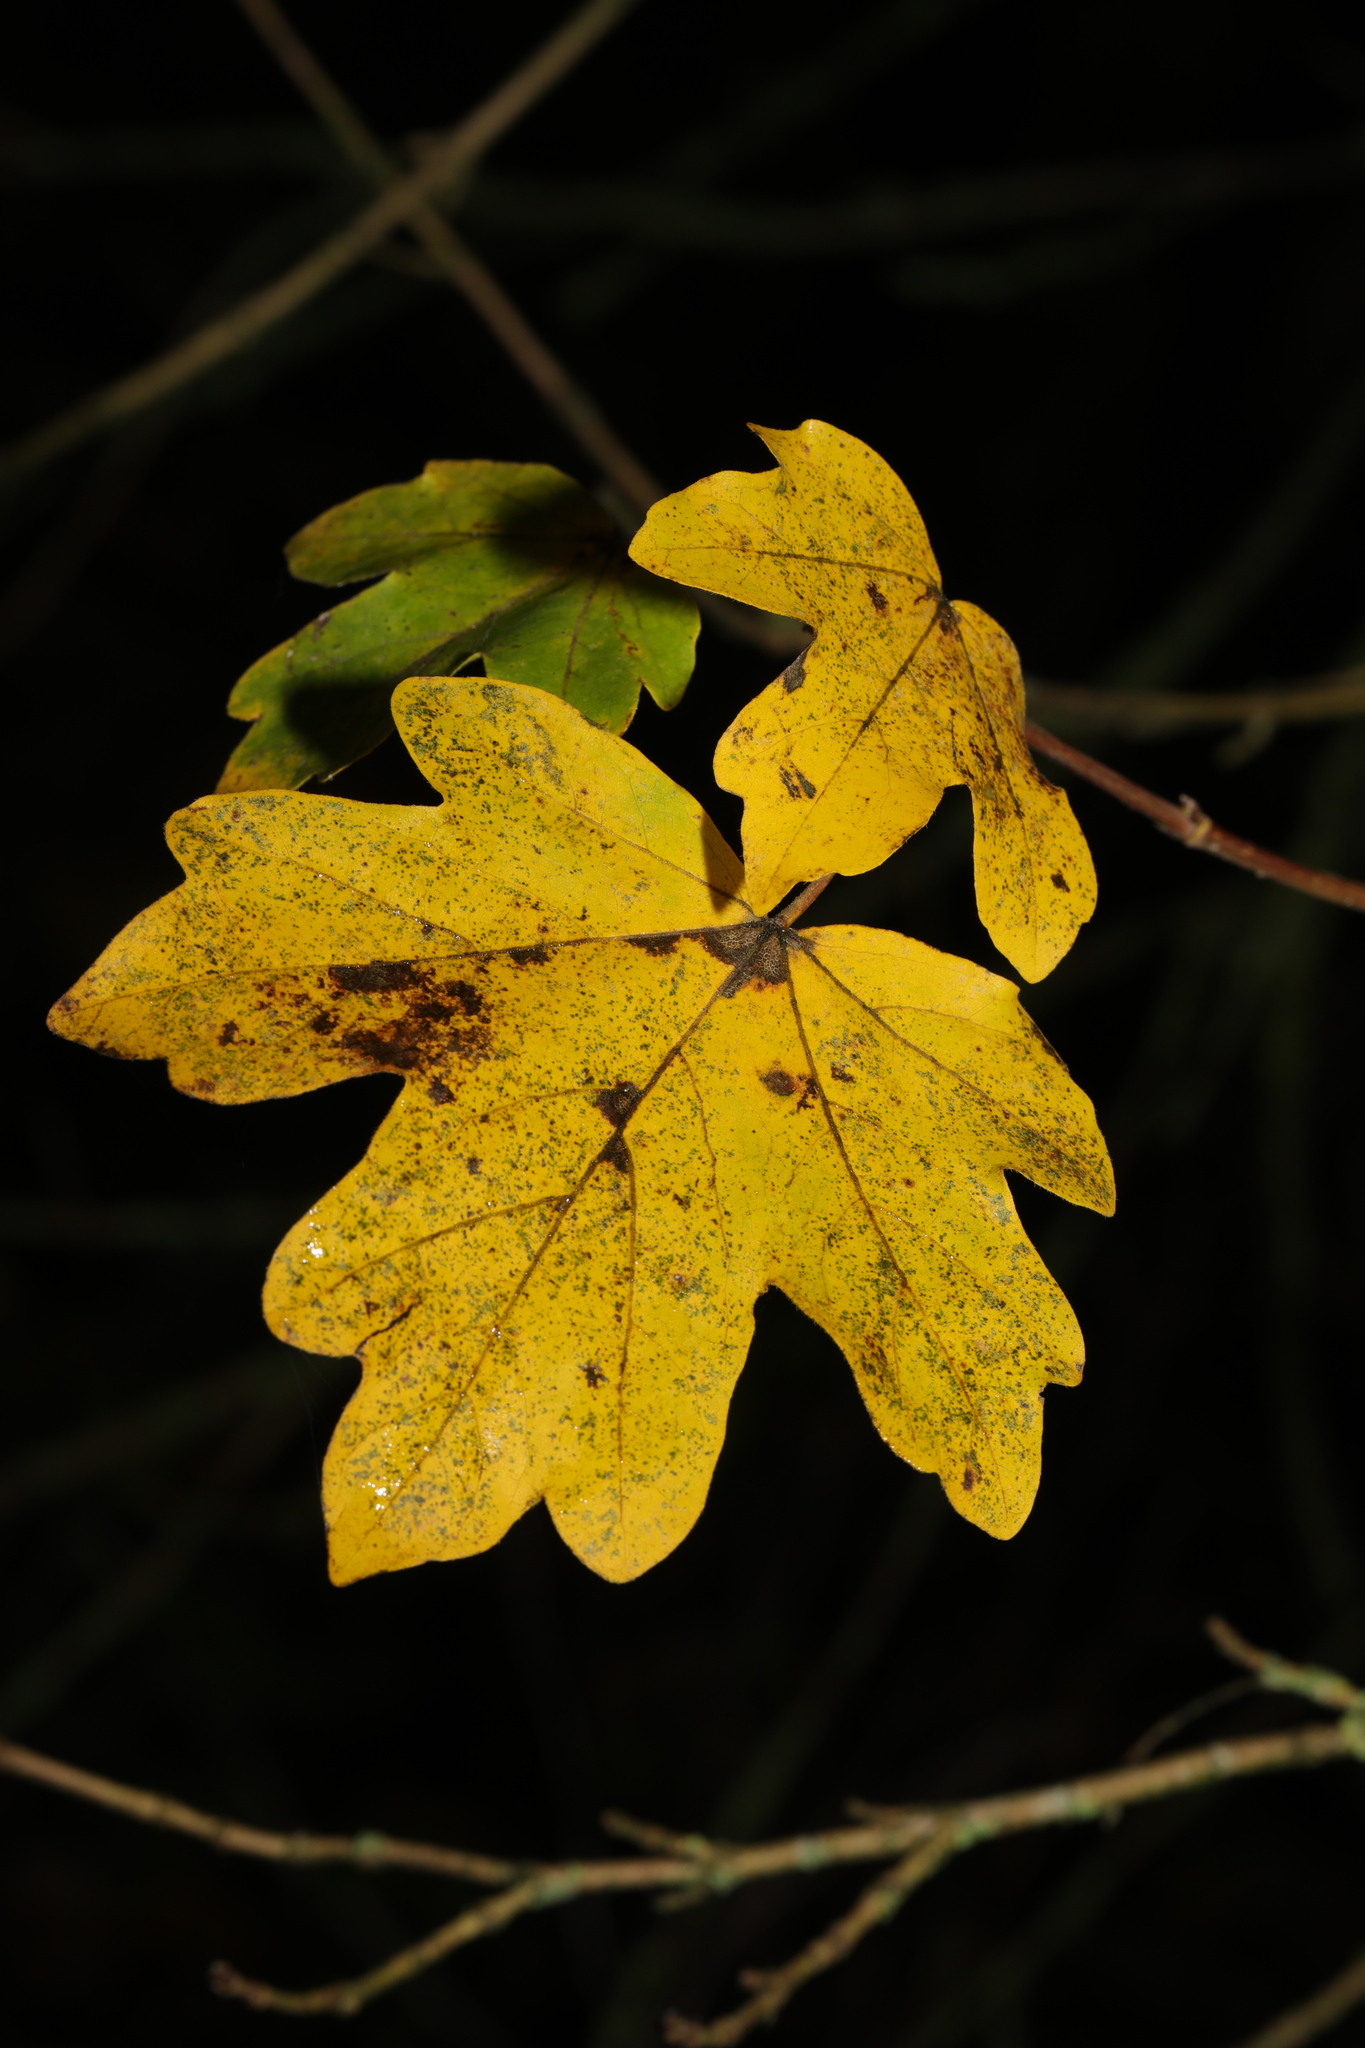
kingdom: Plantae
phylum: Tracheophyta
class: Magnoliopsida
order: Sapindales
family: Sapindaceae
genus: Acer
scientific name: Acer campestre
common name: Field maple
